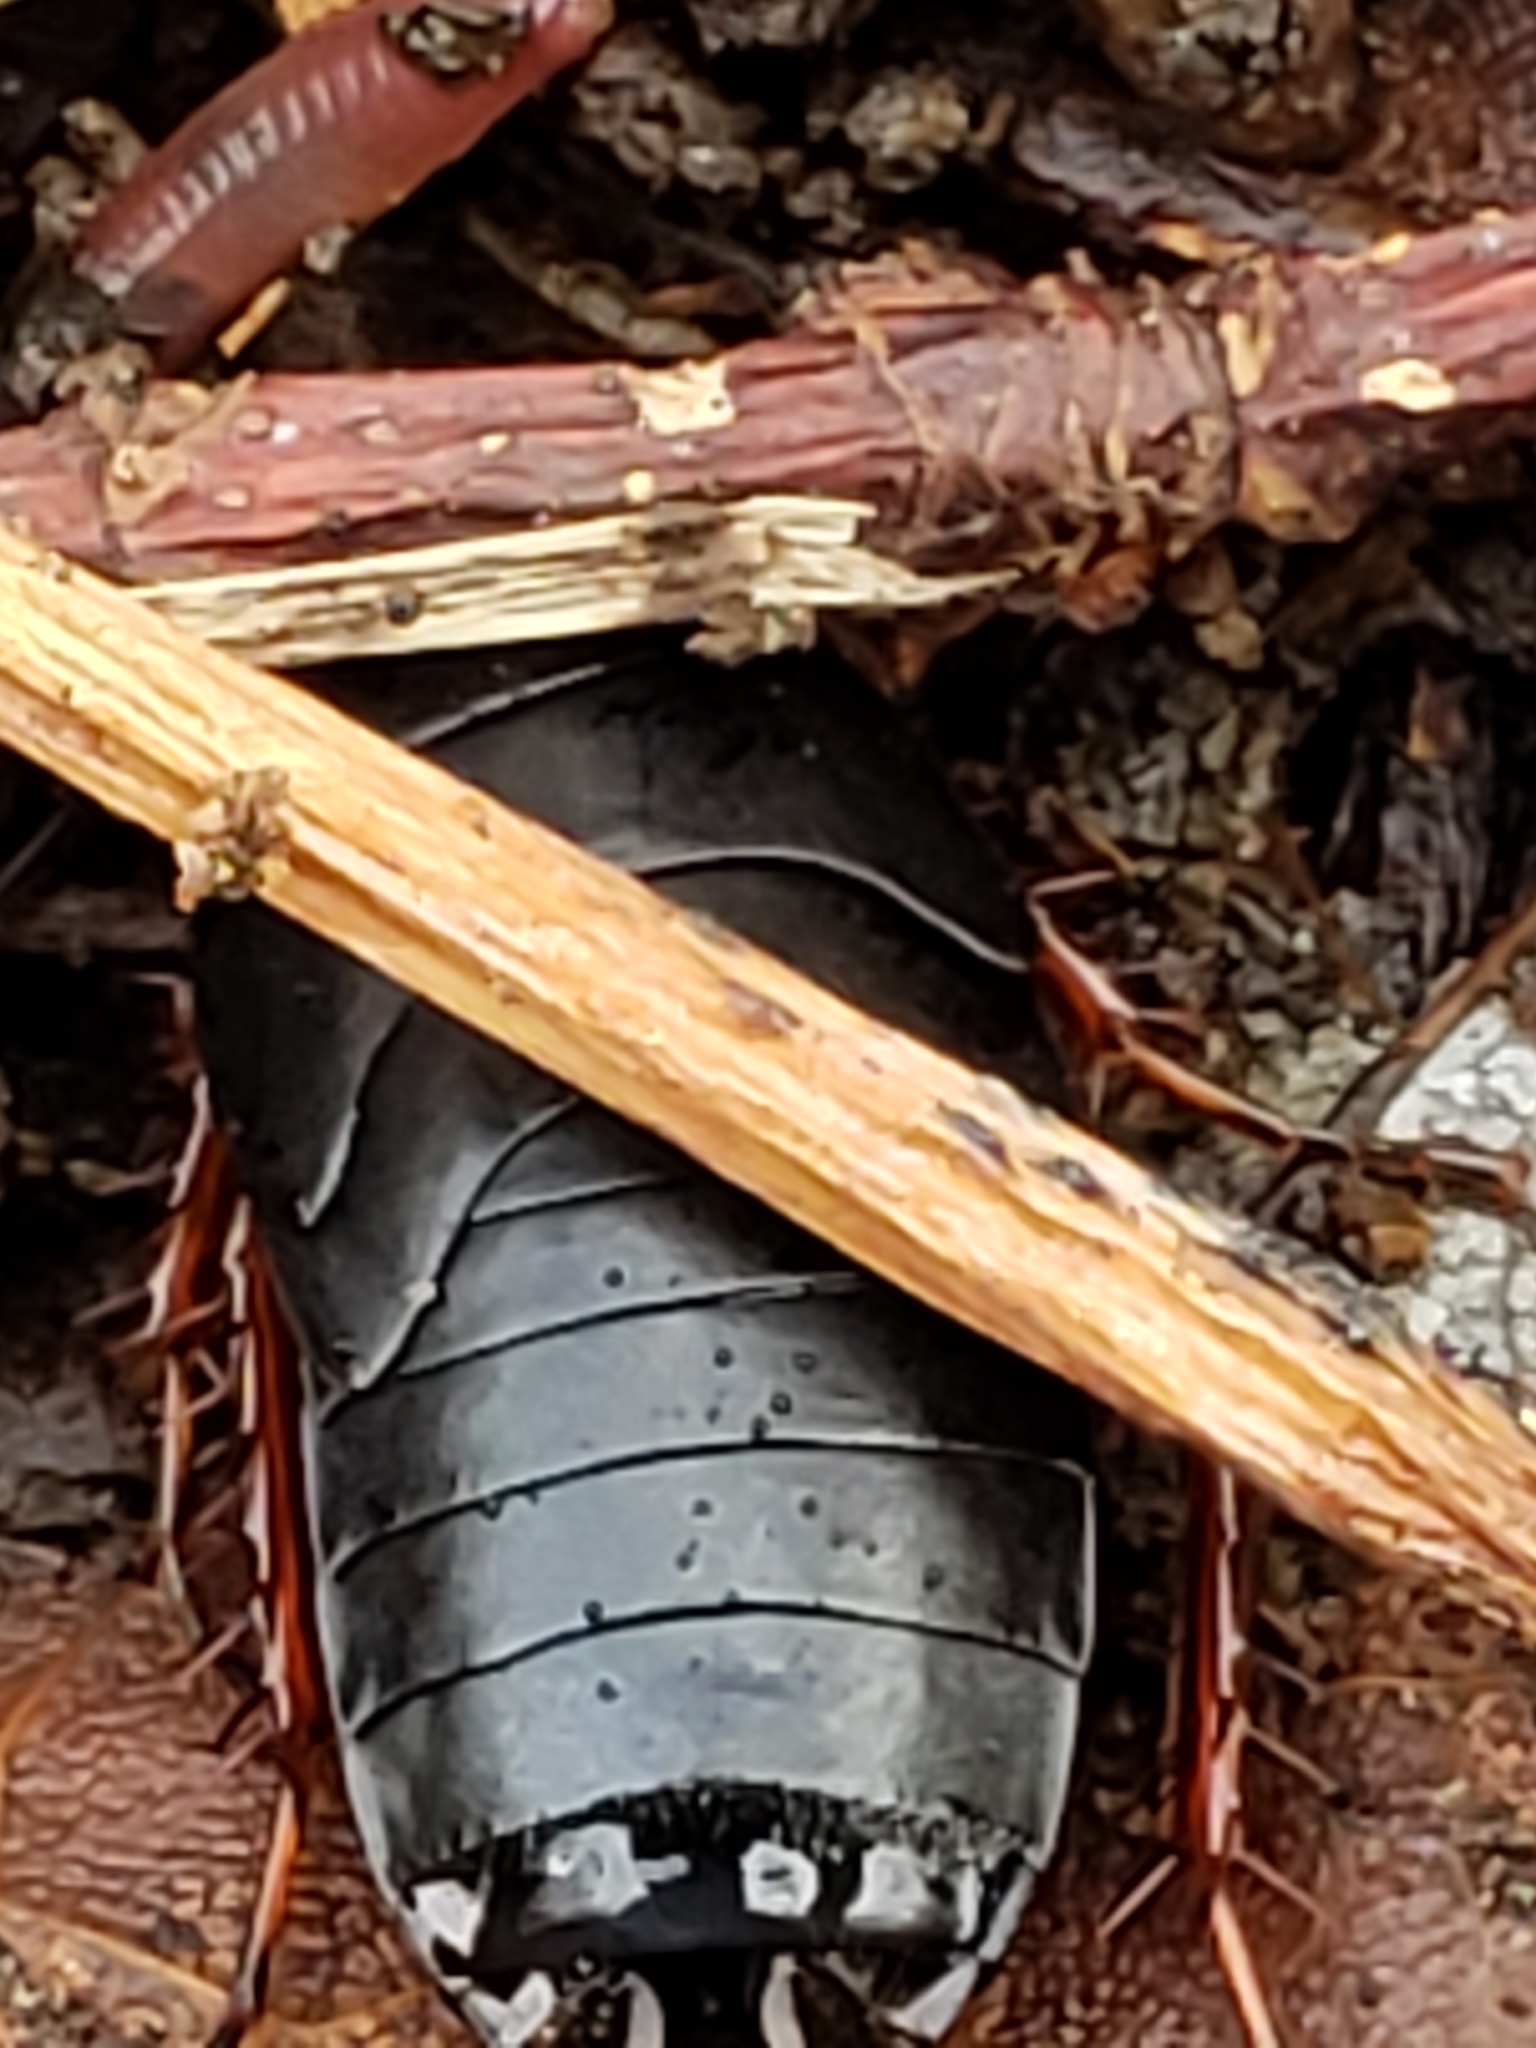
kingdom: Animalia
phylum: Arthropoda
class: Insecta
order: Blattodea
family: Ectobiidae
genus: Ischnoptera
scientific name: Ischnoptera deropeltiformis
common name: Dark wood cockroach
